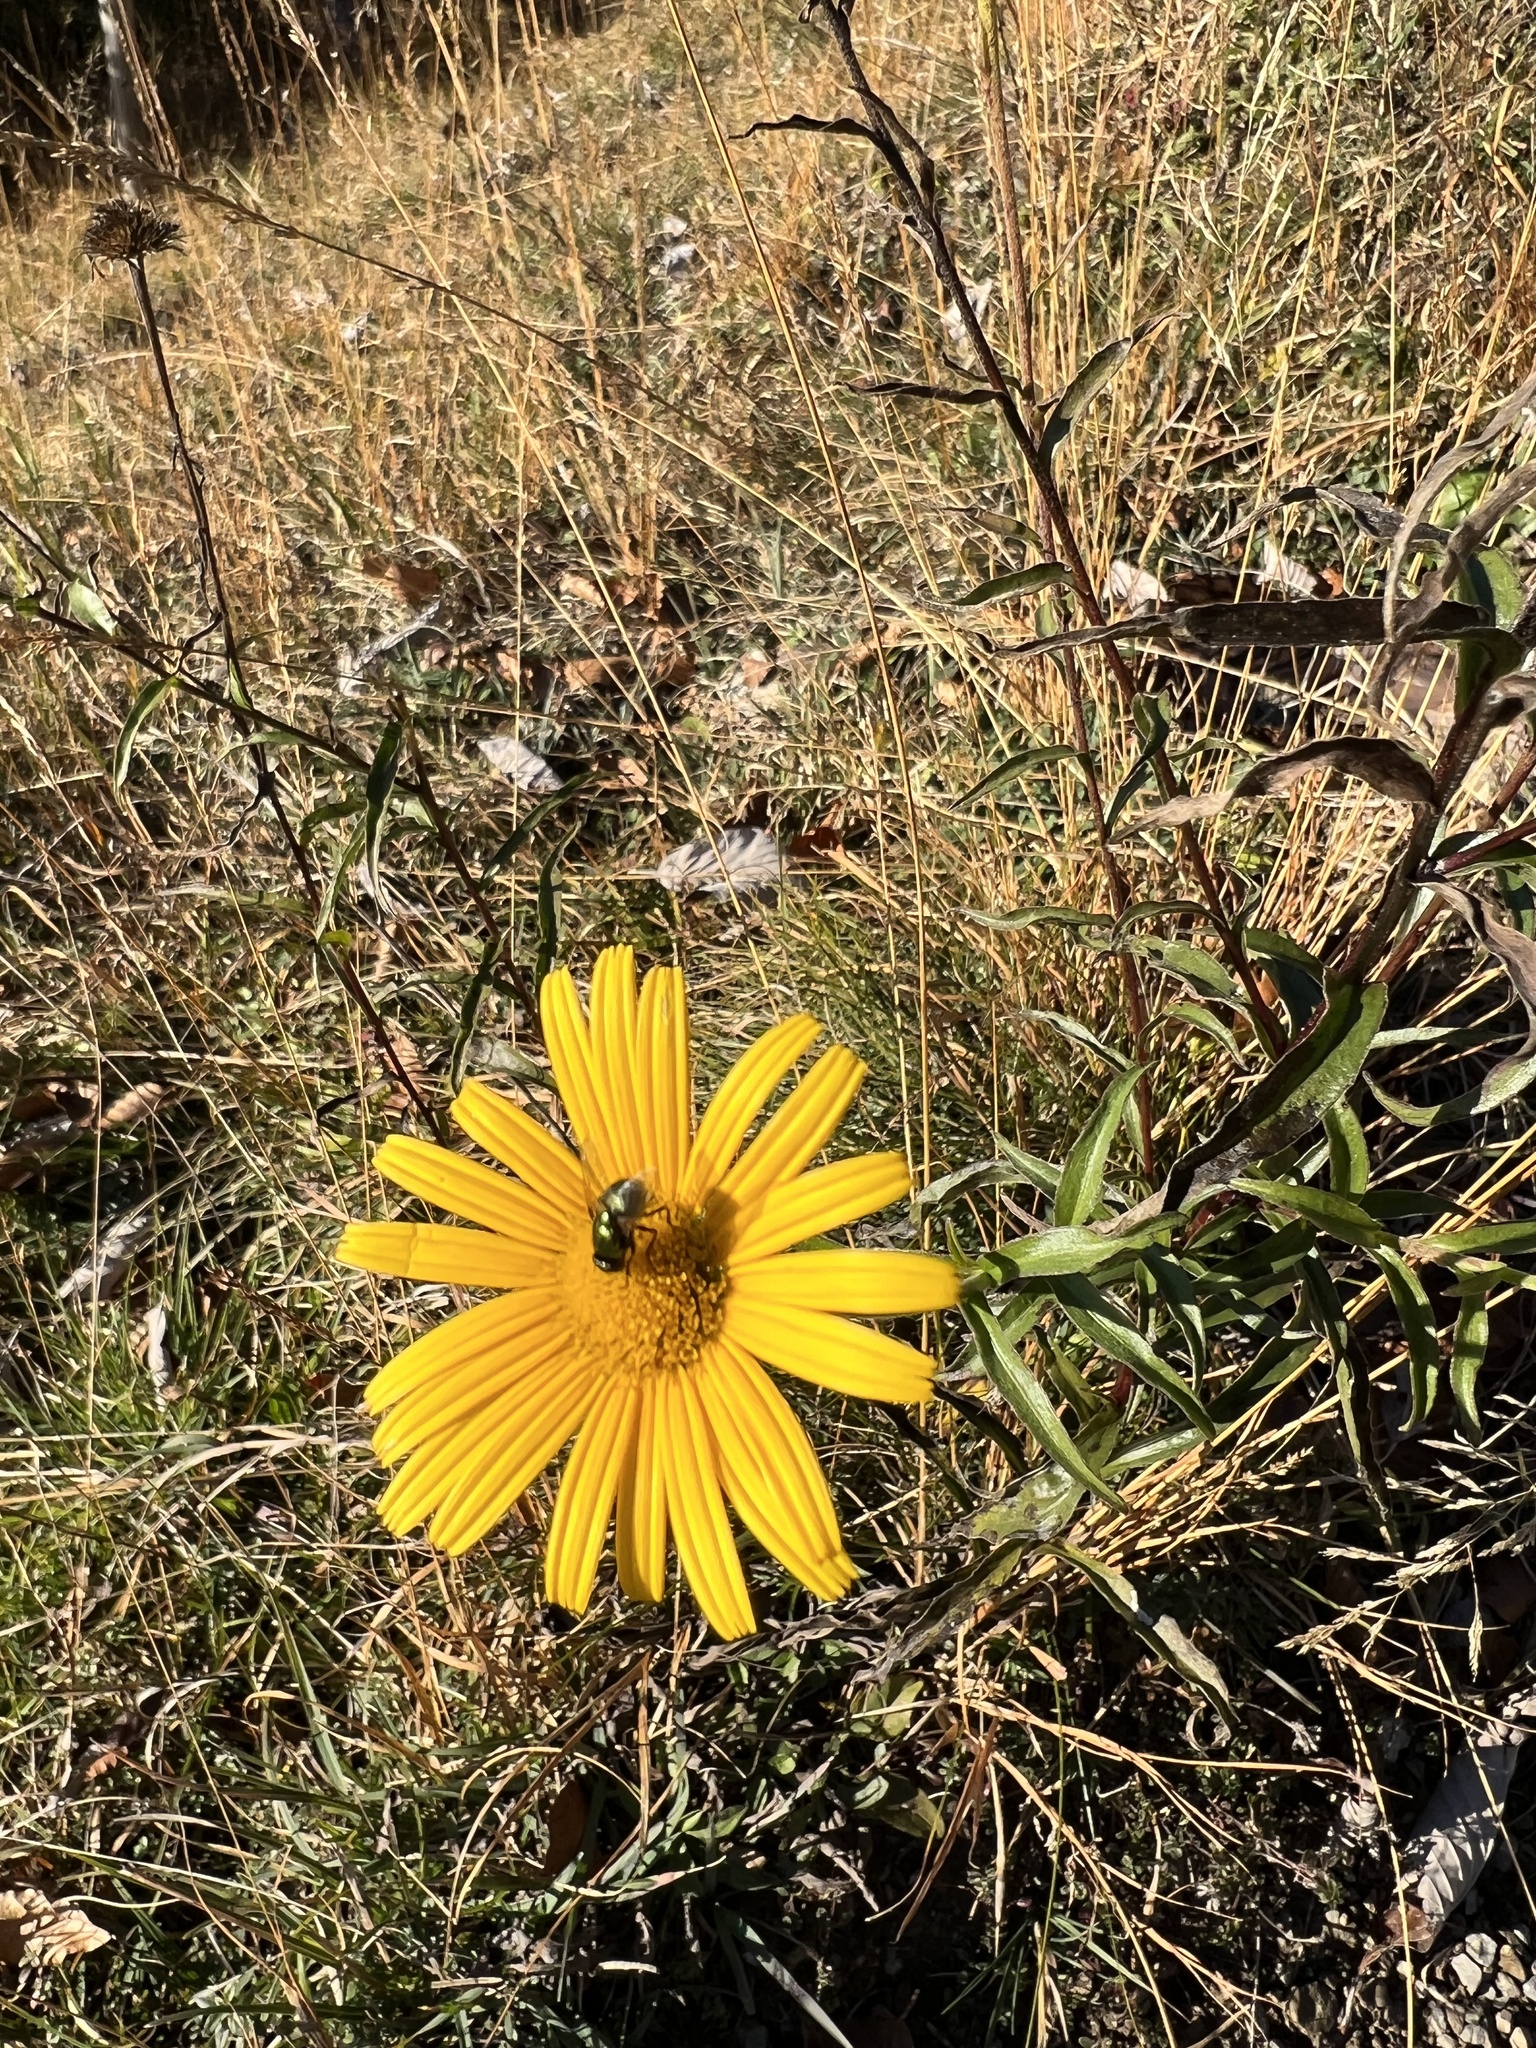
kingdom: Plantae
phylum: Tracheophyta
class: Magnoliopsida
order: Asterales
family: Asteraceae
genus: Buphthalmum
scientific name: Buphthalmum salicifolium
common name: Willow-leaved yellow-oxeye
